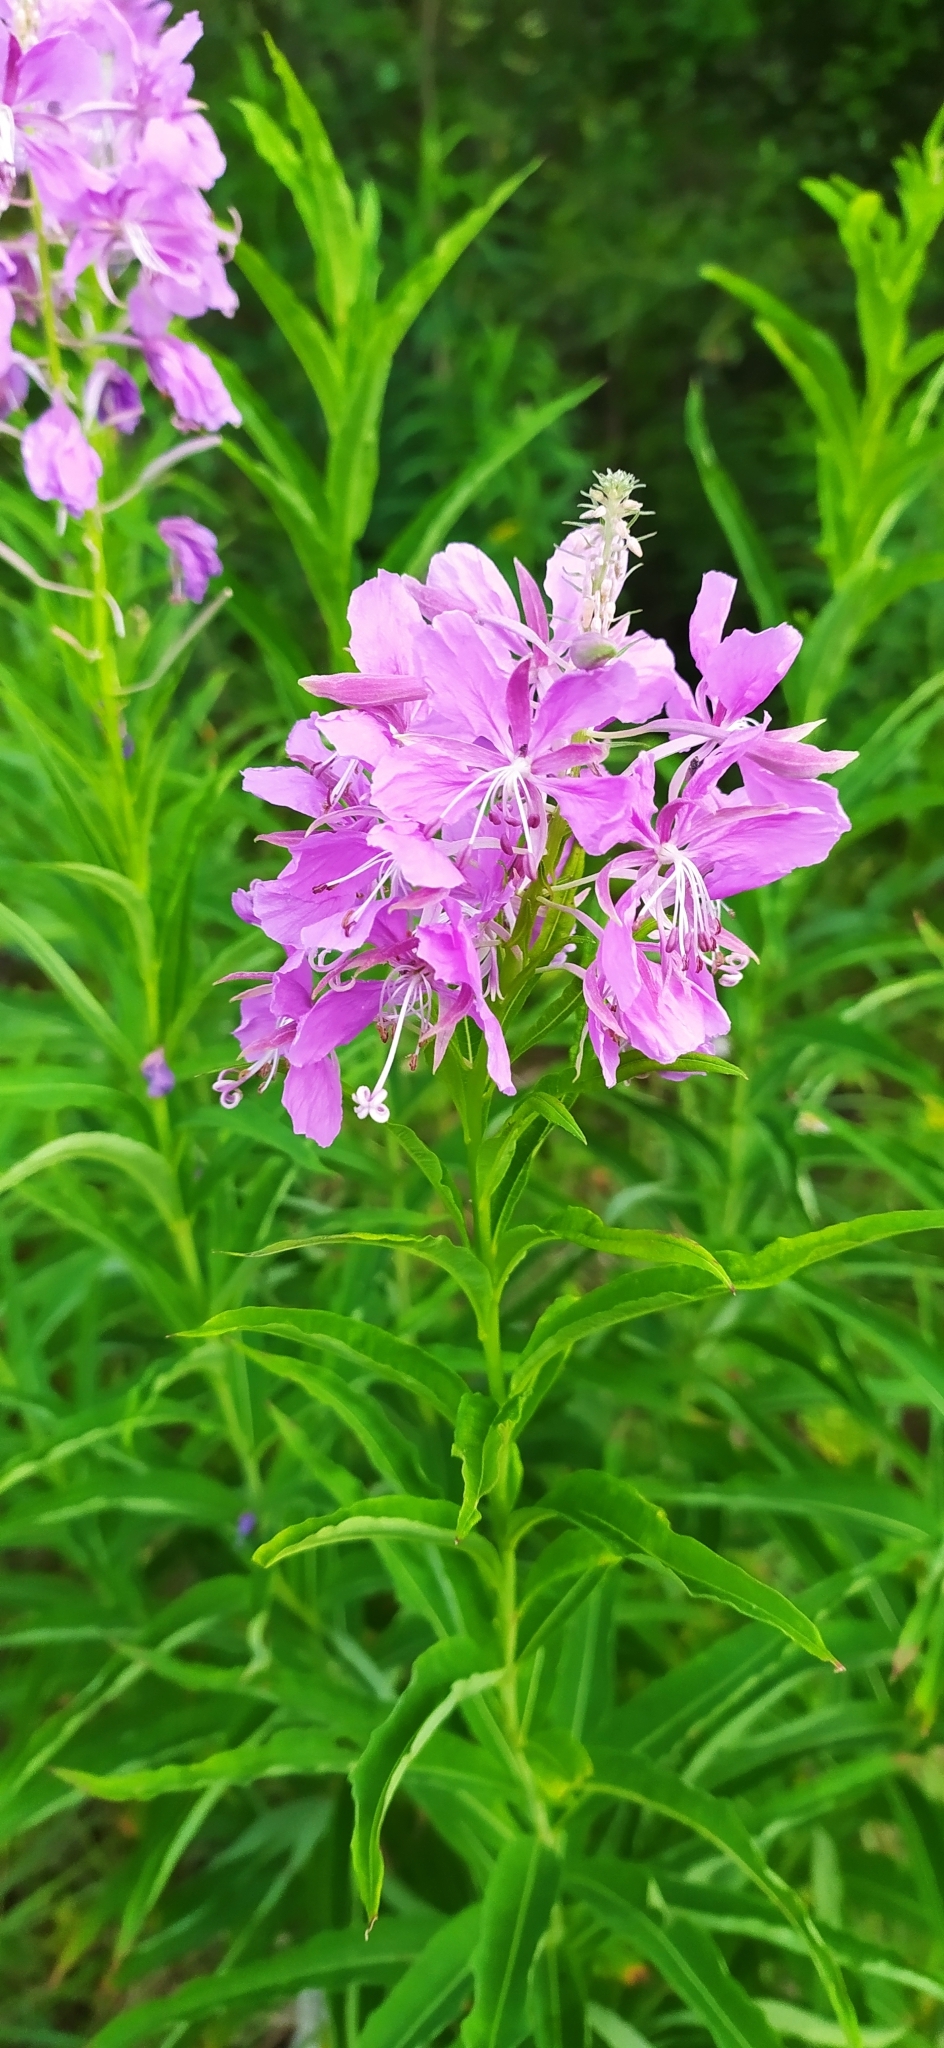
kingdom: Plantae
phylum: Tracheophyta
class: Magnoliopsida
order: Myrtales
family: Onagraceae
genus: Chamaenerion
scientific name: Chamaenerion angustifolium
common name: Fireweed
